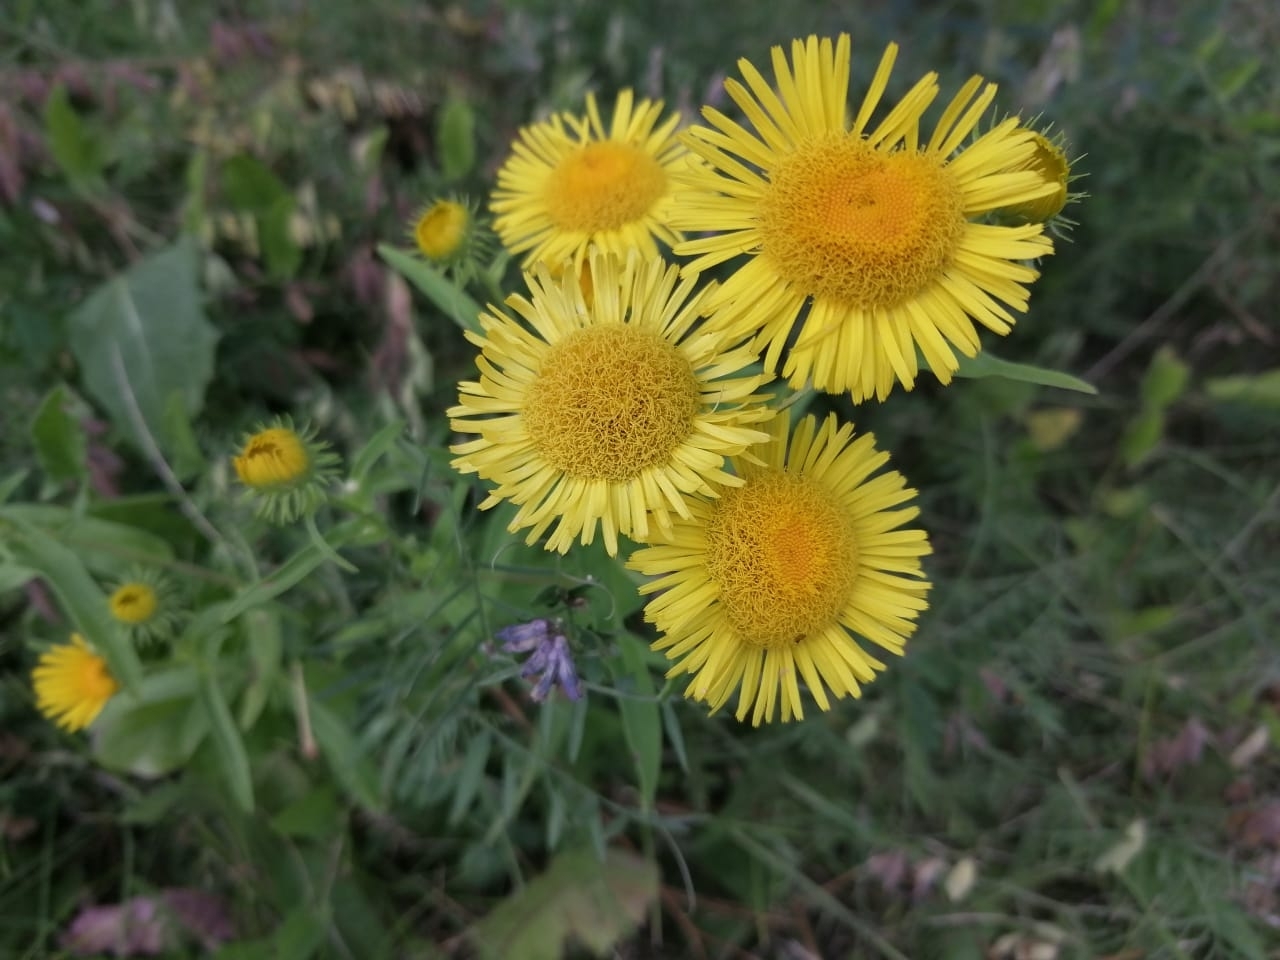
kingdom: Plantae
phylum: Tracheophyta
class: Magnoliopsida
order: Asterales
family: Asteraceae
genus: Pentanema
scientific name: Pentanema britannicum
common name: British elecampane
